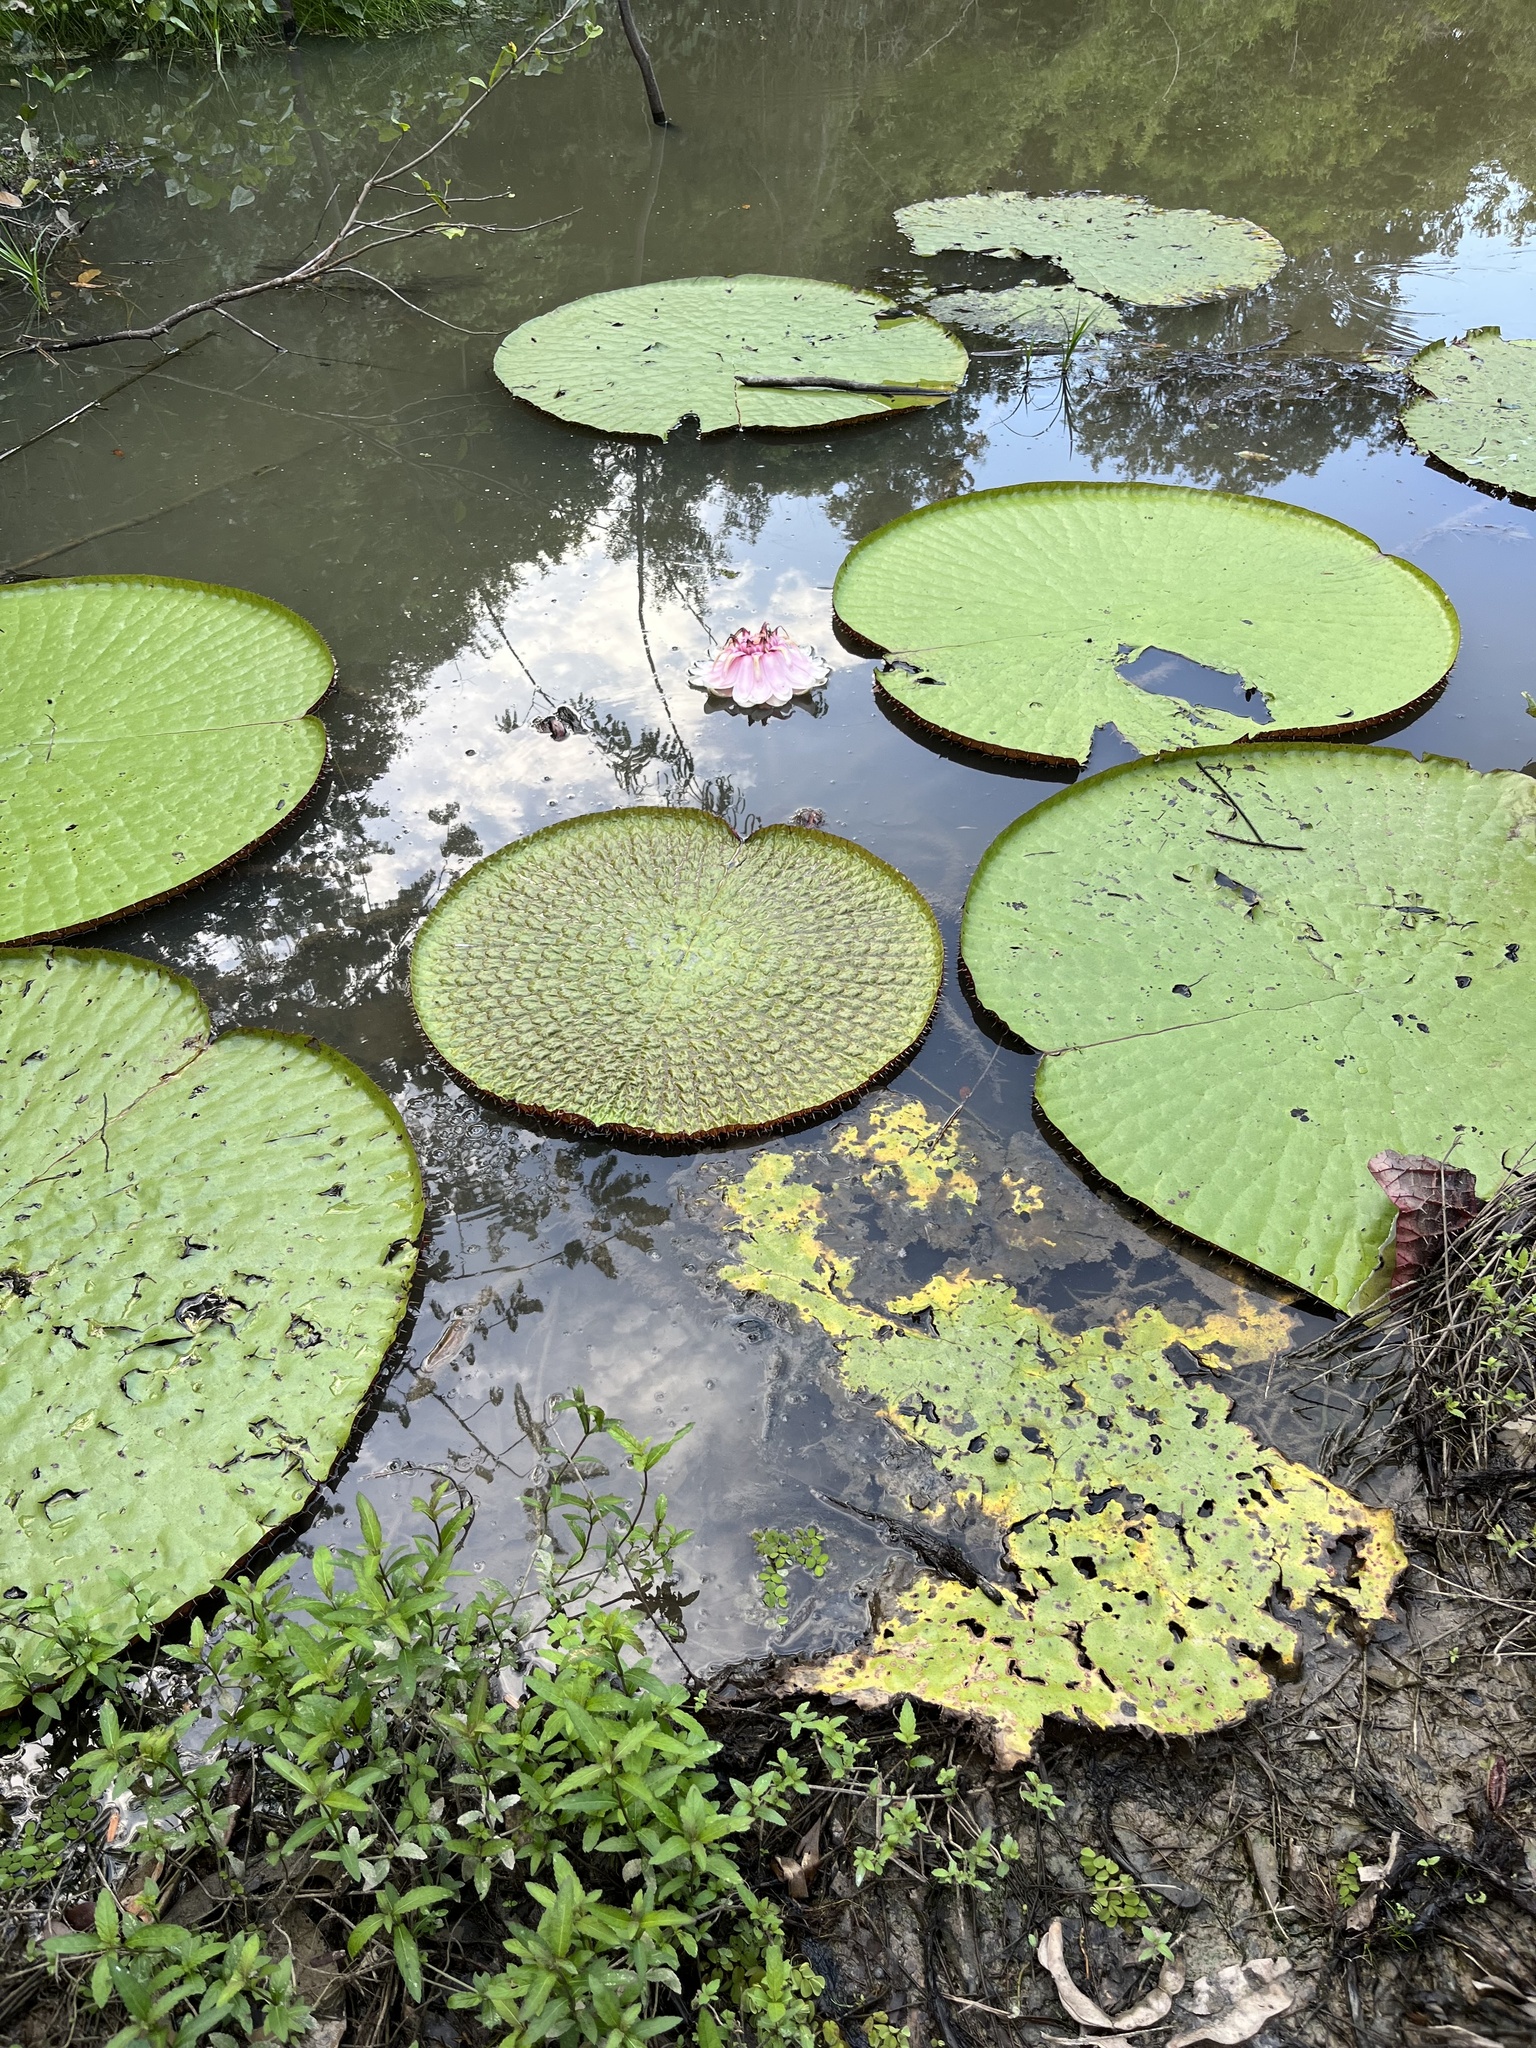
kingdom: Plantae
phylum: Tracheophyta
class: Magnoliopsida
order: Nymphaeales
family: Nymphaeaceae
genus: Victoria
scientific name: Victoria amazonica
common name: Amazon water-lily
